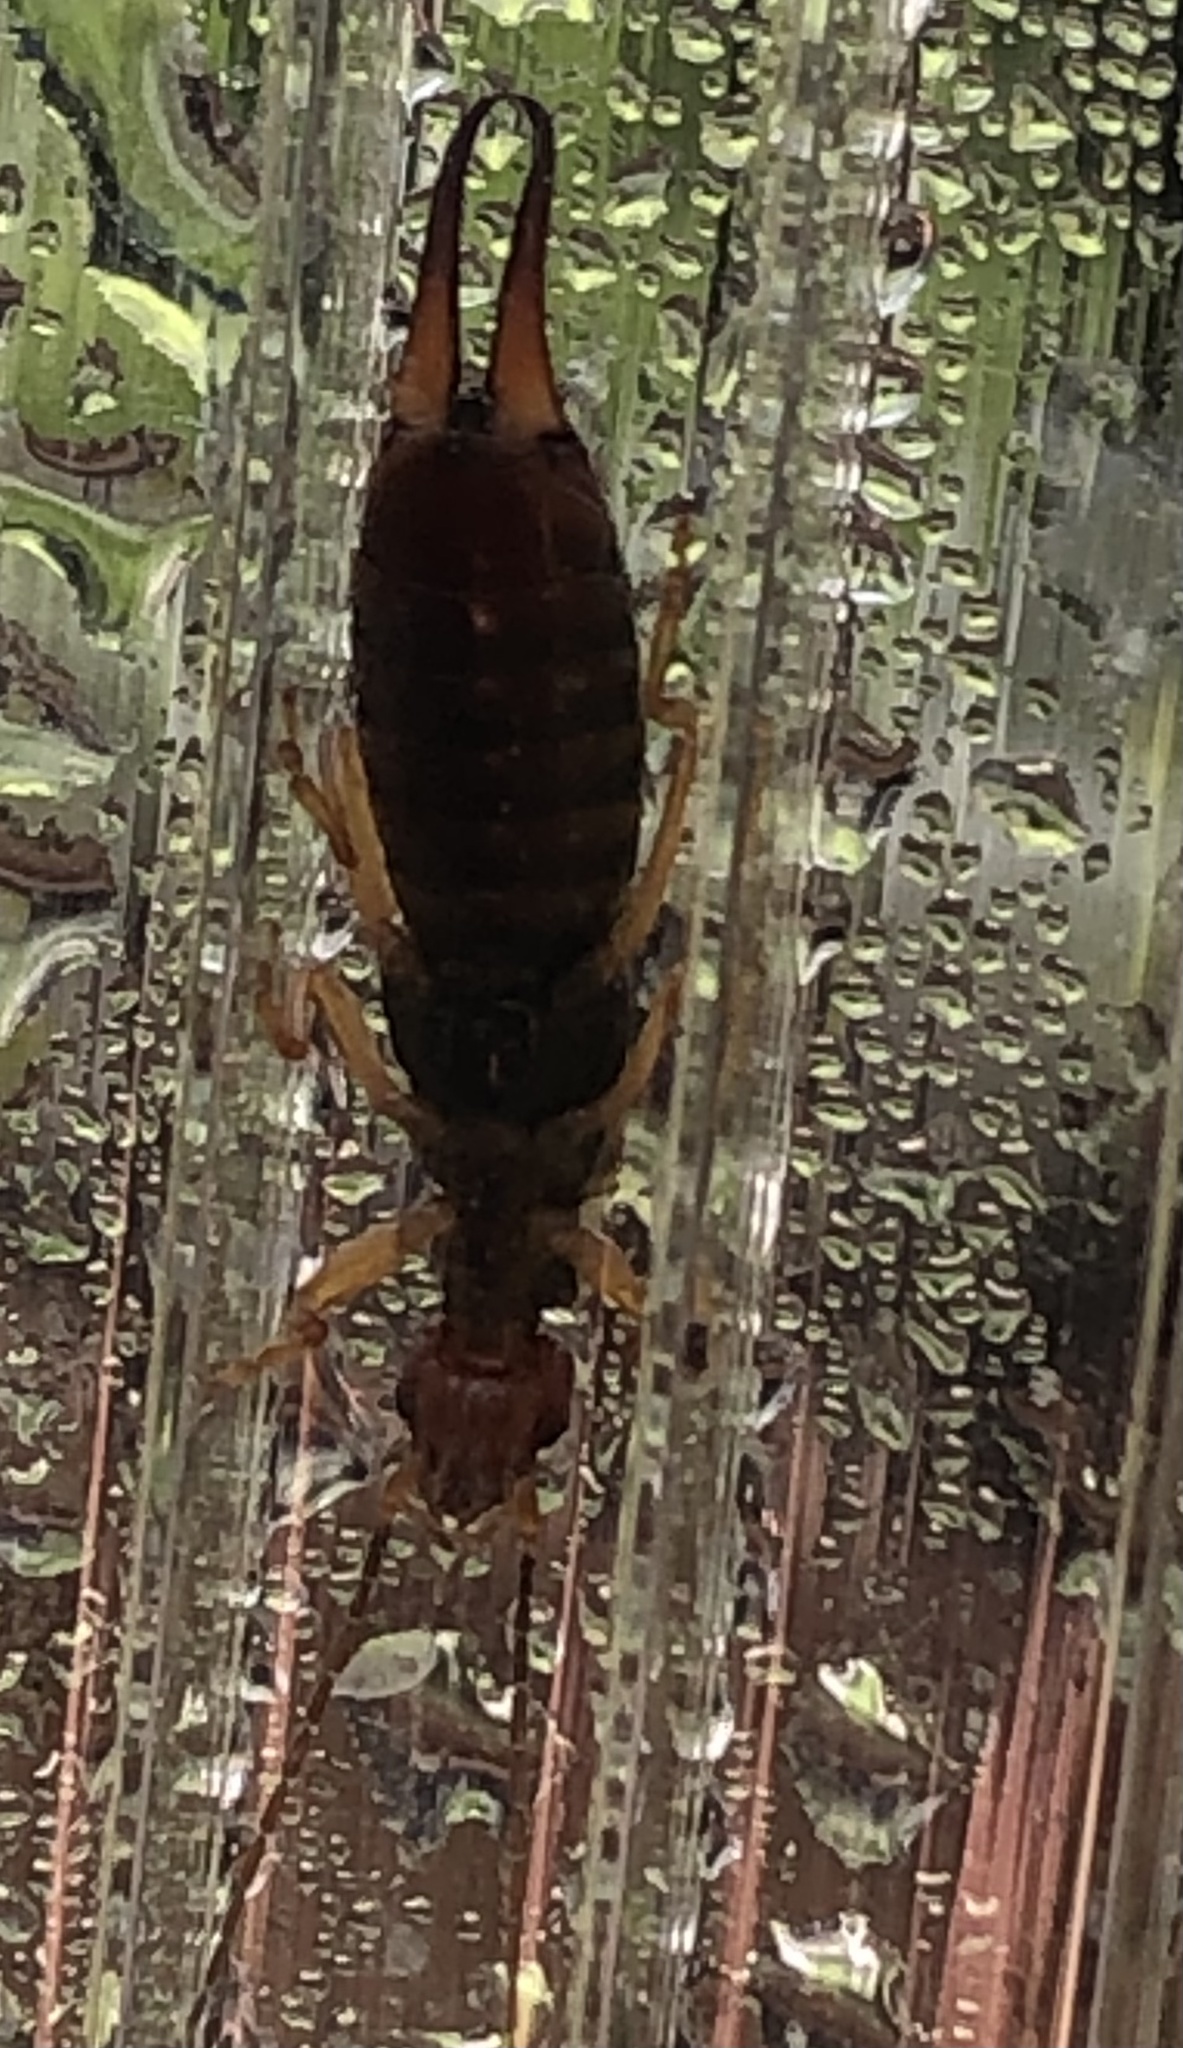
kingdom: Animalia
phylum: Arthropoda
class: Insecta
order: Dermaptera
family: Forficulidae
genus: Forficula
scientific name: Forficula
